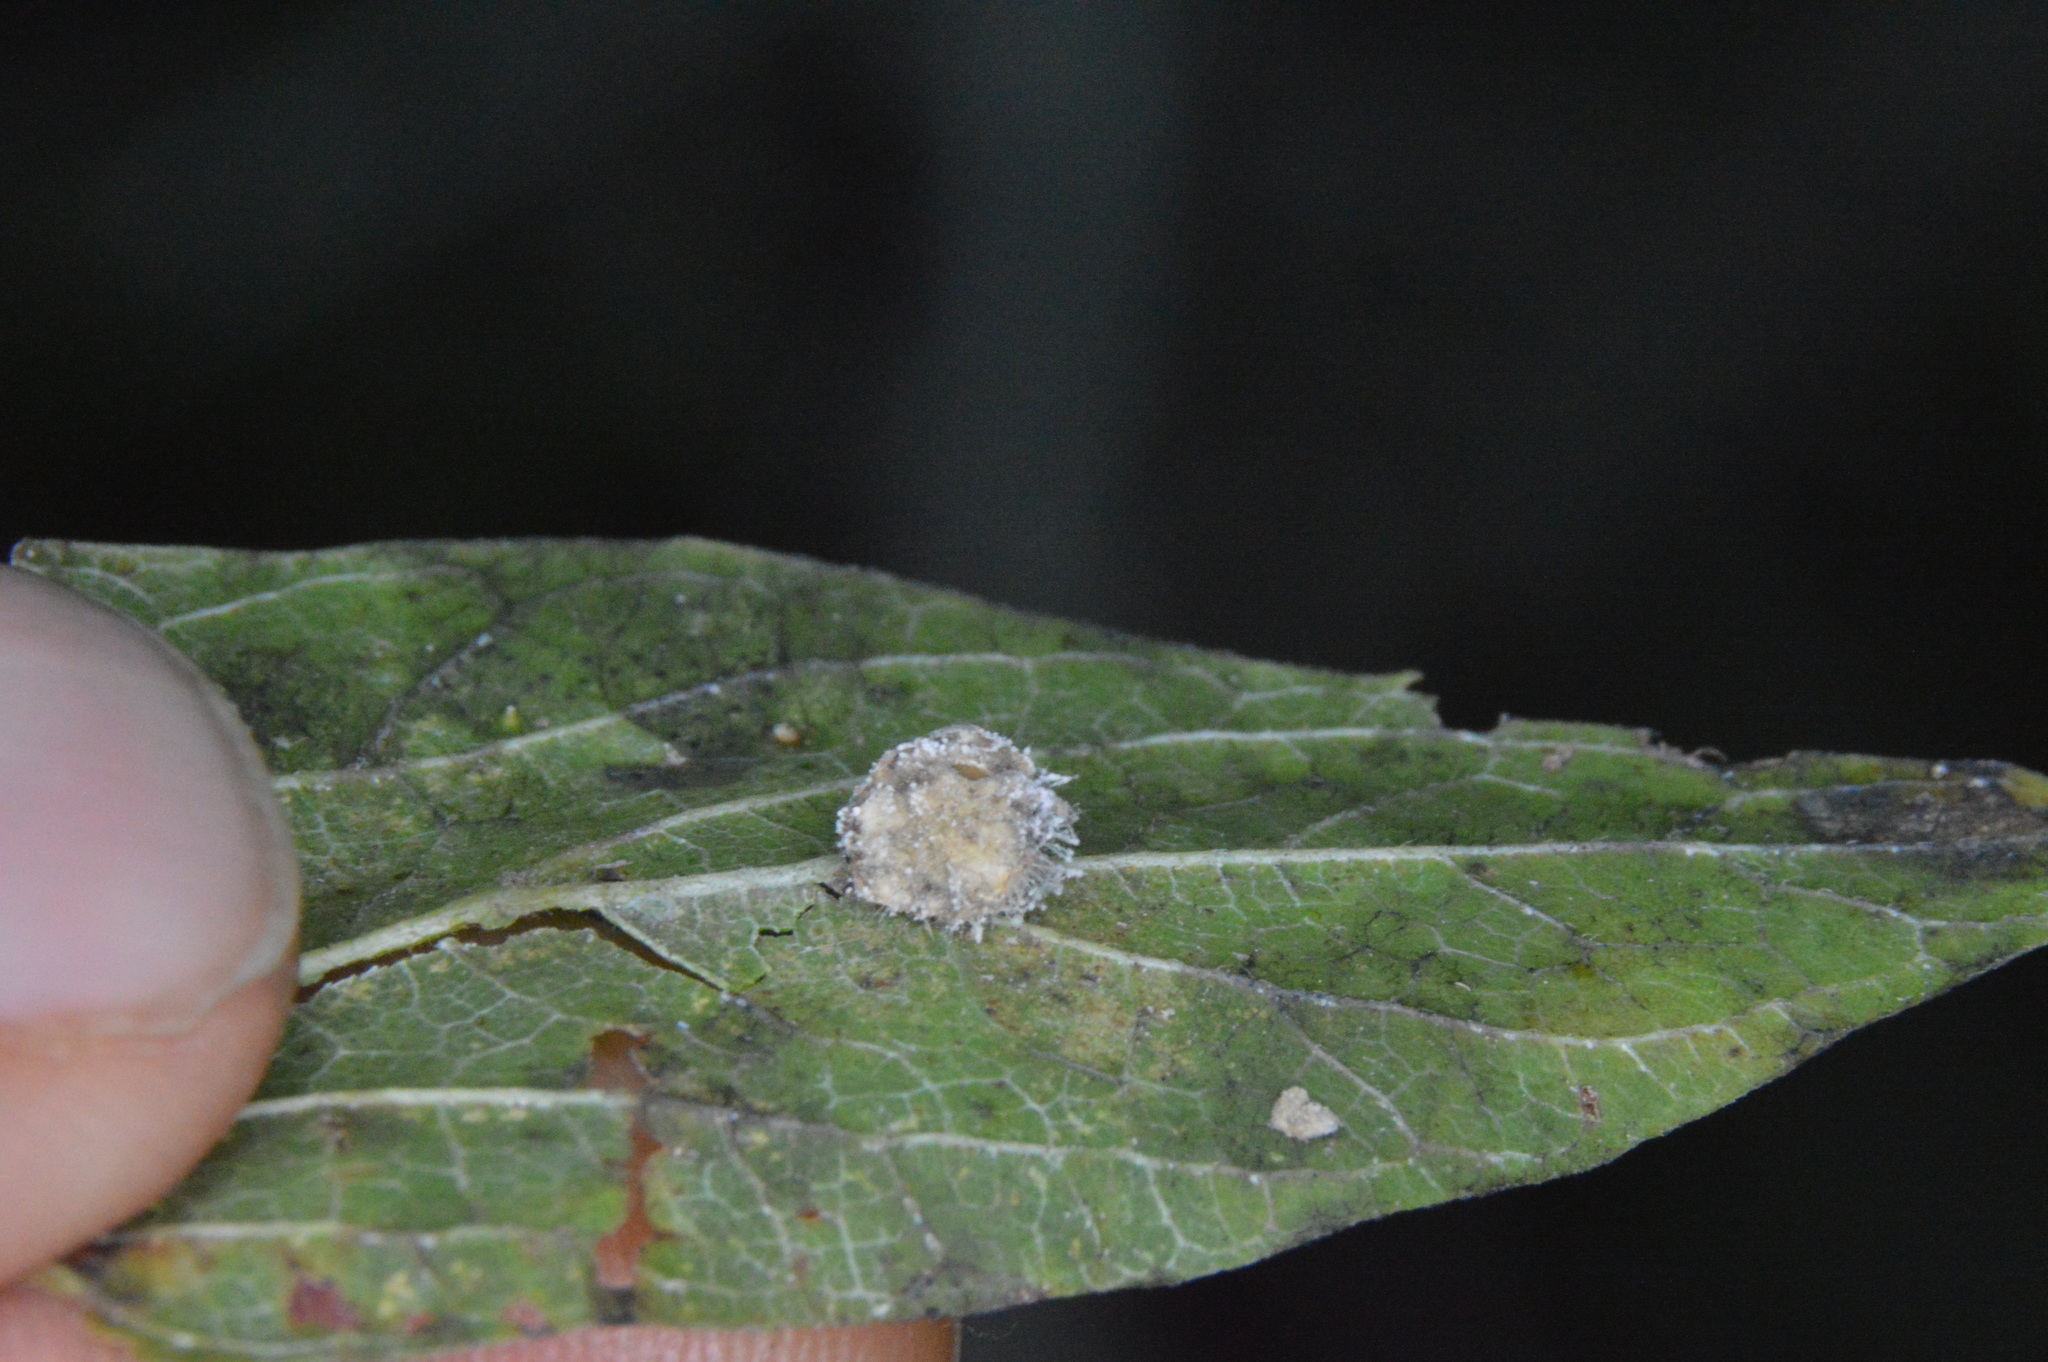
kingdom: Animalia
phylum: Arthropoda
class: Insecta
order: Diptera
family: Cecidomyiidae
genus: Celticecis
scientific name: Celticecis pubescens
